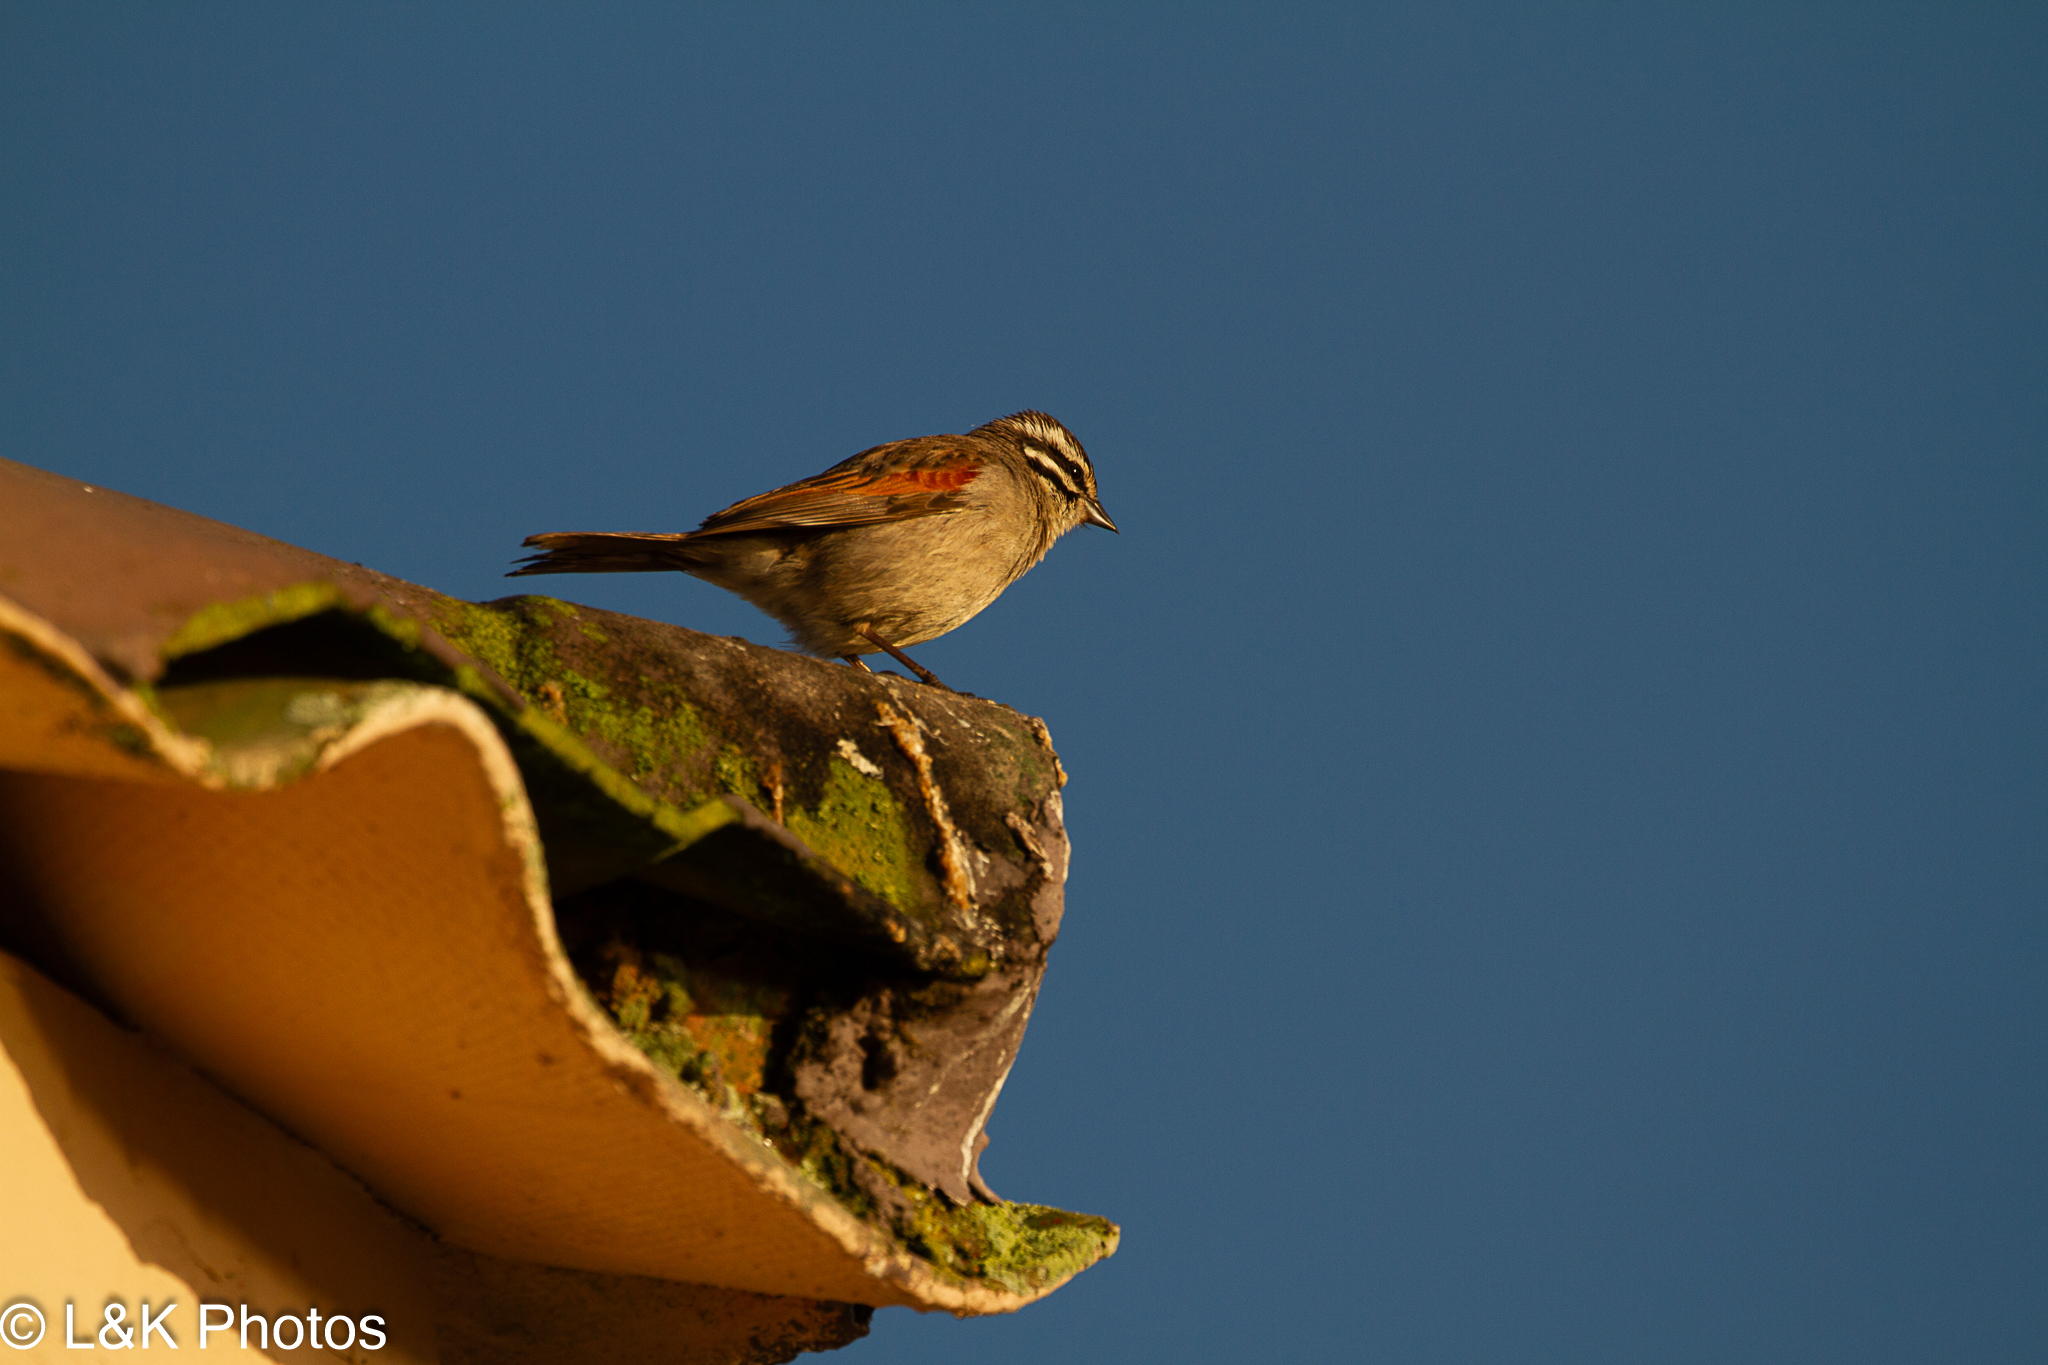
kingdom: Animalia
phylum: Chordata
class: Aves
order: Passeriformes
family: Emberizidae
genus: Emberiza
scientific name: Emberiza capensis
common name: Cape bunting
